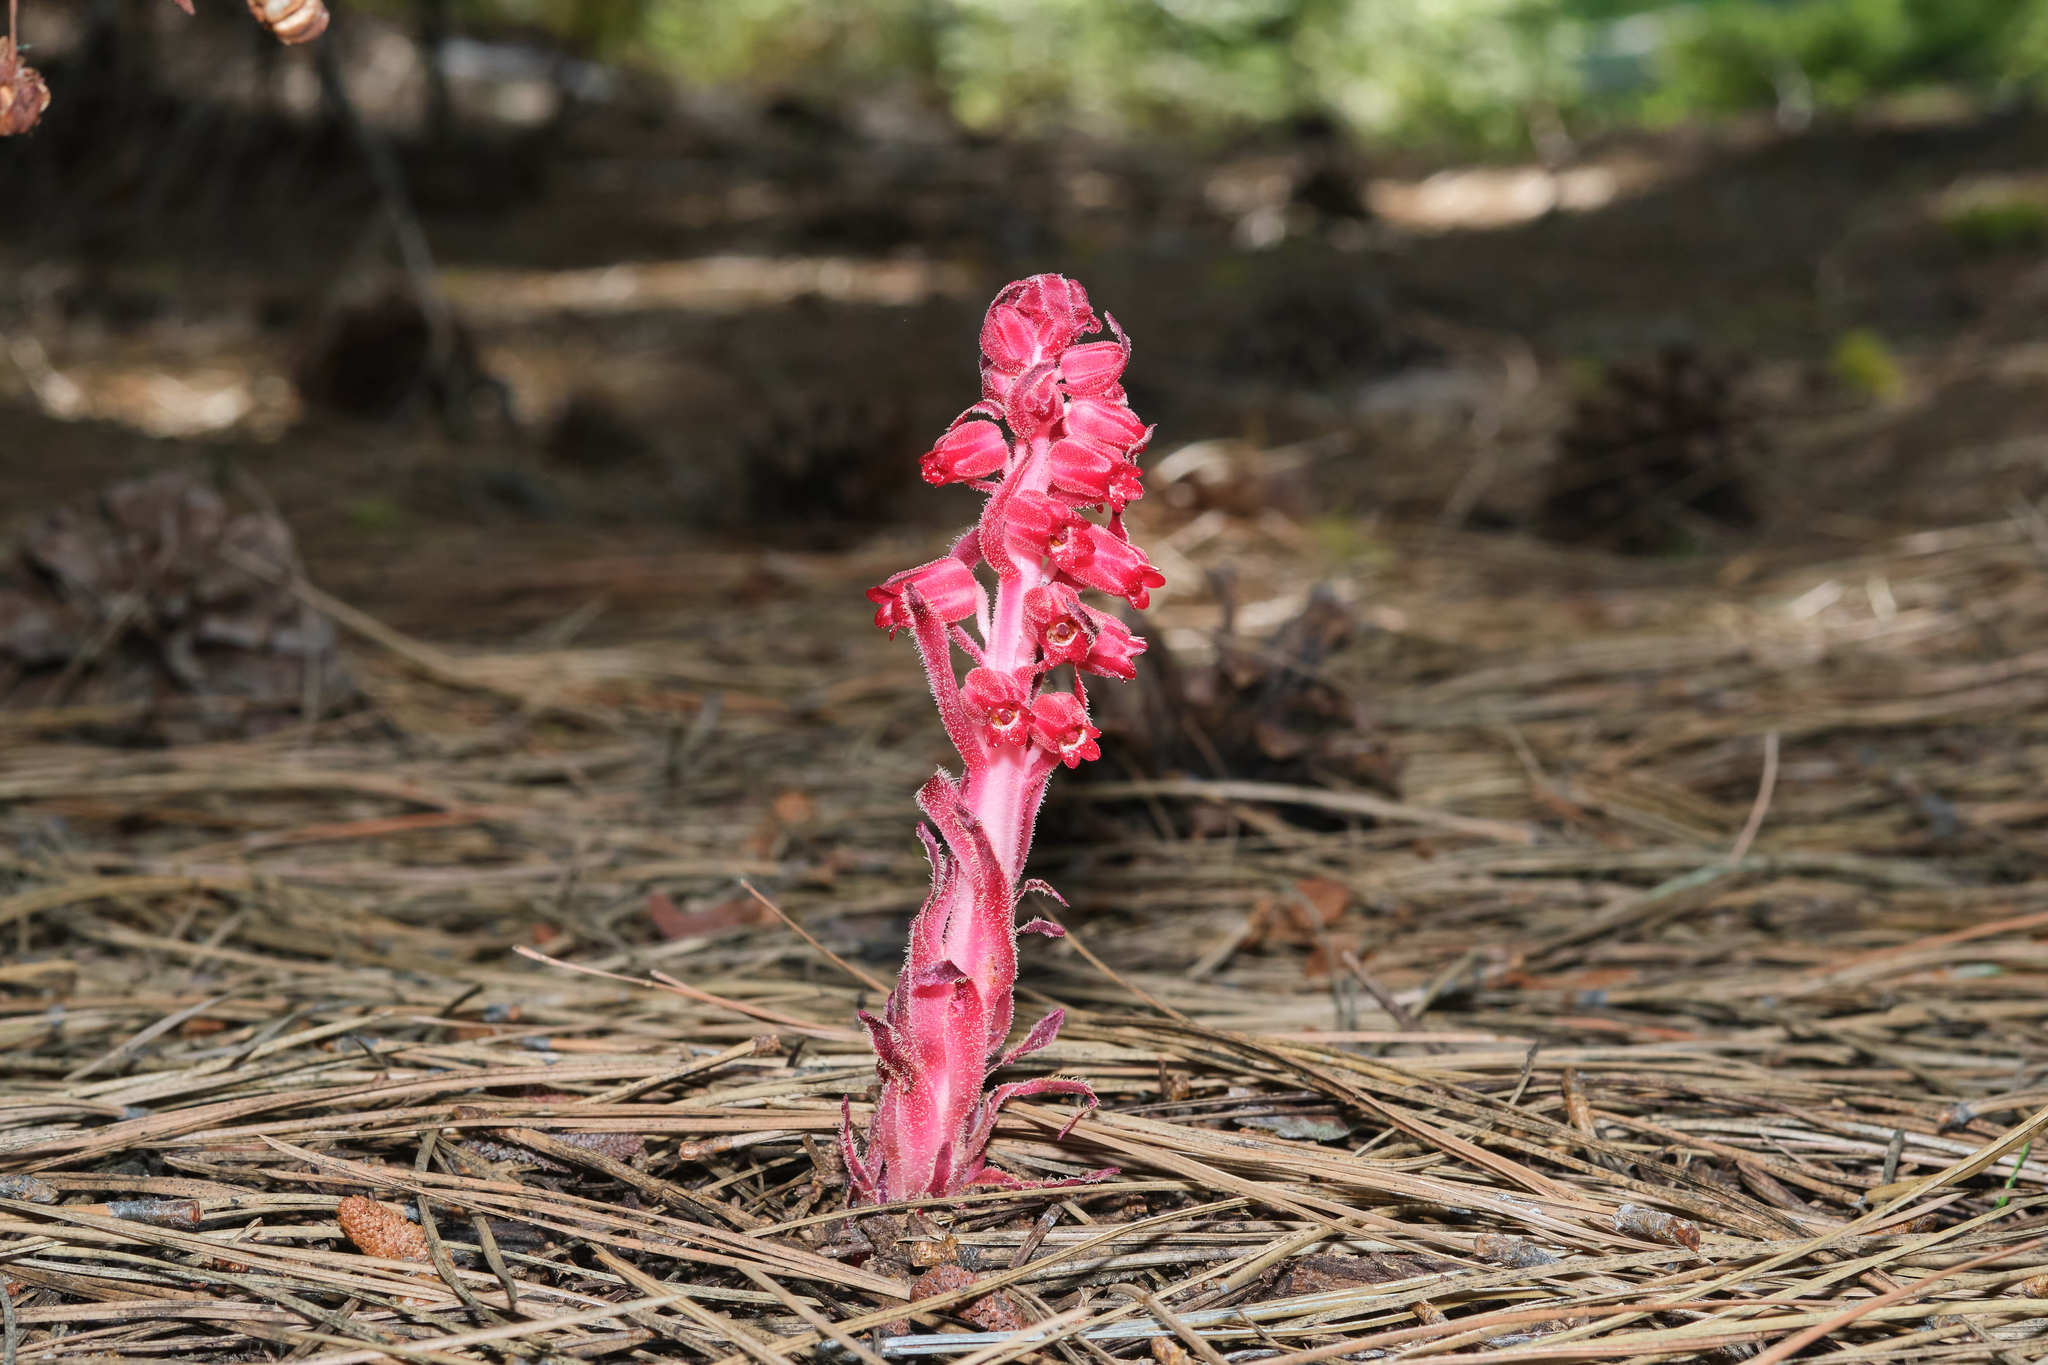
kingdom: Plantae
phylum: Tracheophyta
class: Magnoliopsida
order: Ericales
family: Ericaceae
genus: Sarcodes
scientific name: Sarcodes sanguinea
